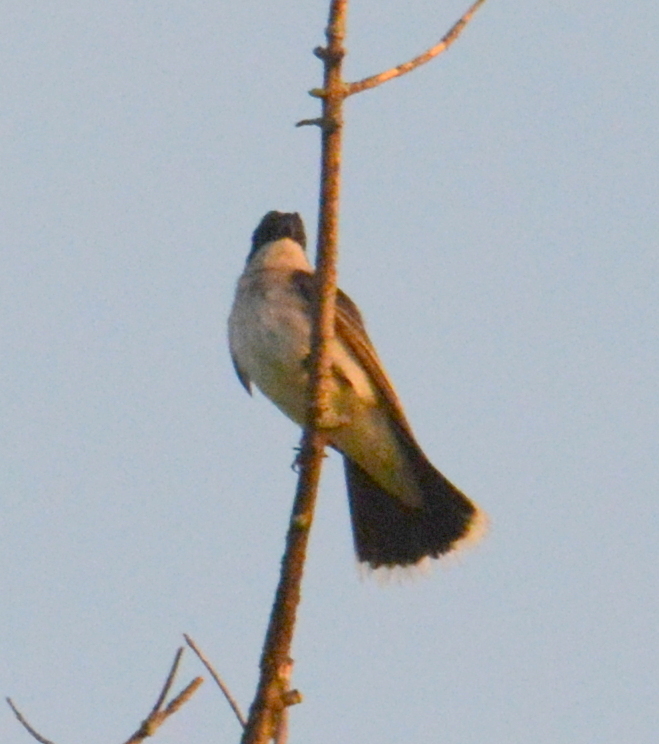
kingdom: Animalia
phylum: Chordata
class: Aves
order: Passeriformes
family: Tyrannidae
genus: Tyrannus
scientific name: Tyrannus tyrannus
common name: Eastern kingbird
